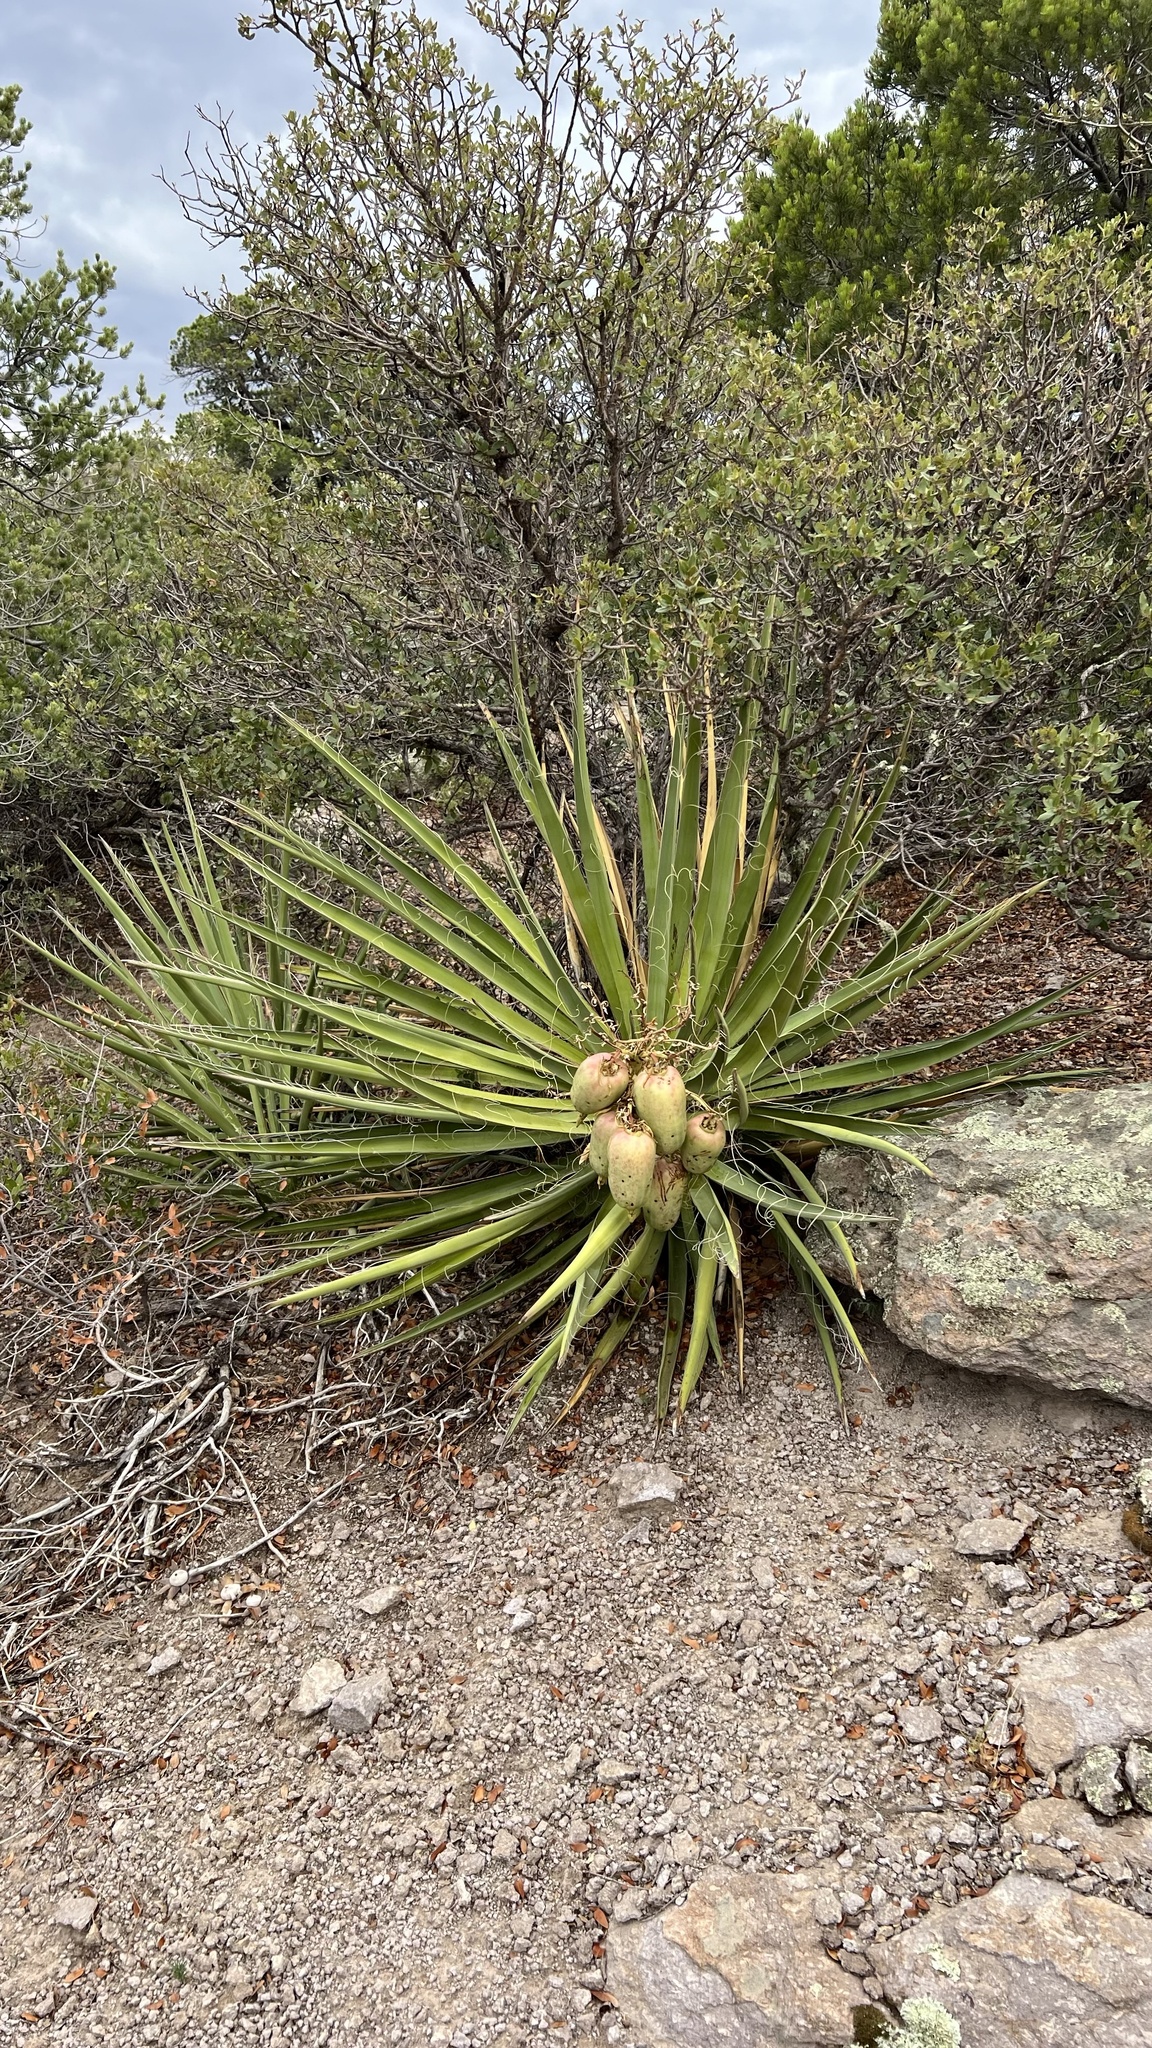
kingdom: Plantae
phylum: Tracheophyta
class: Liliopsida
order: Asparagales
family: Asparagaceae
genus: Yucca
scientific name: Yucca baccata
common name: Banana yucca
